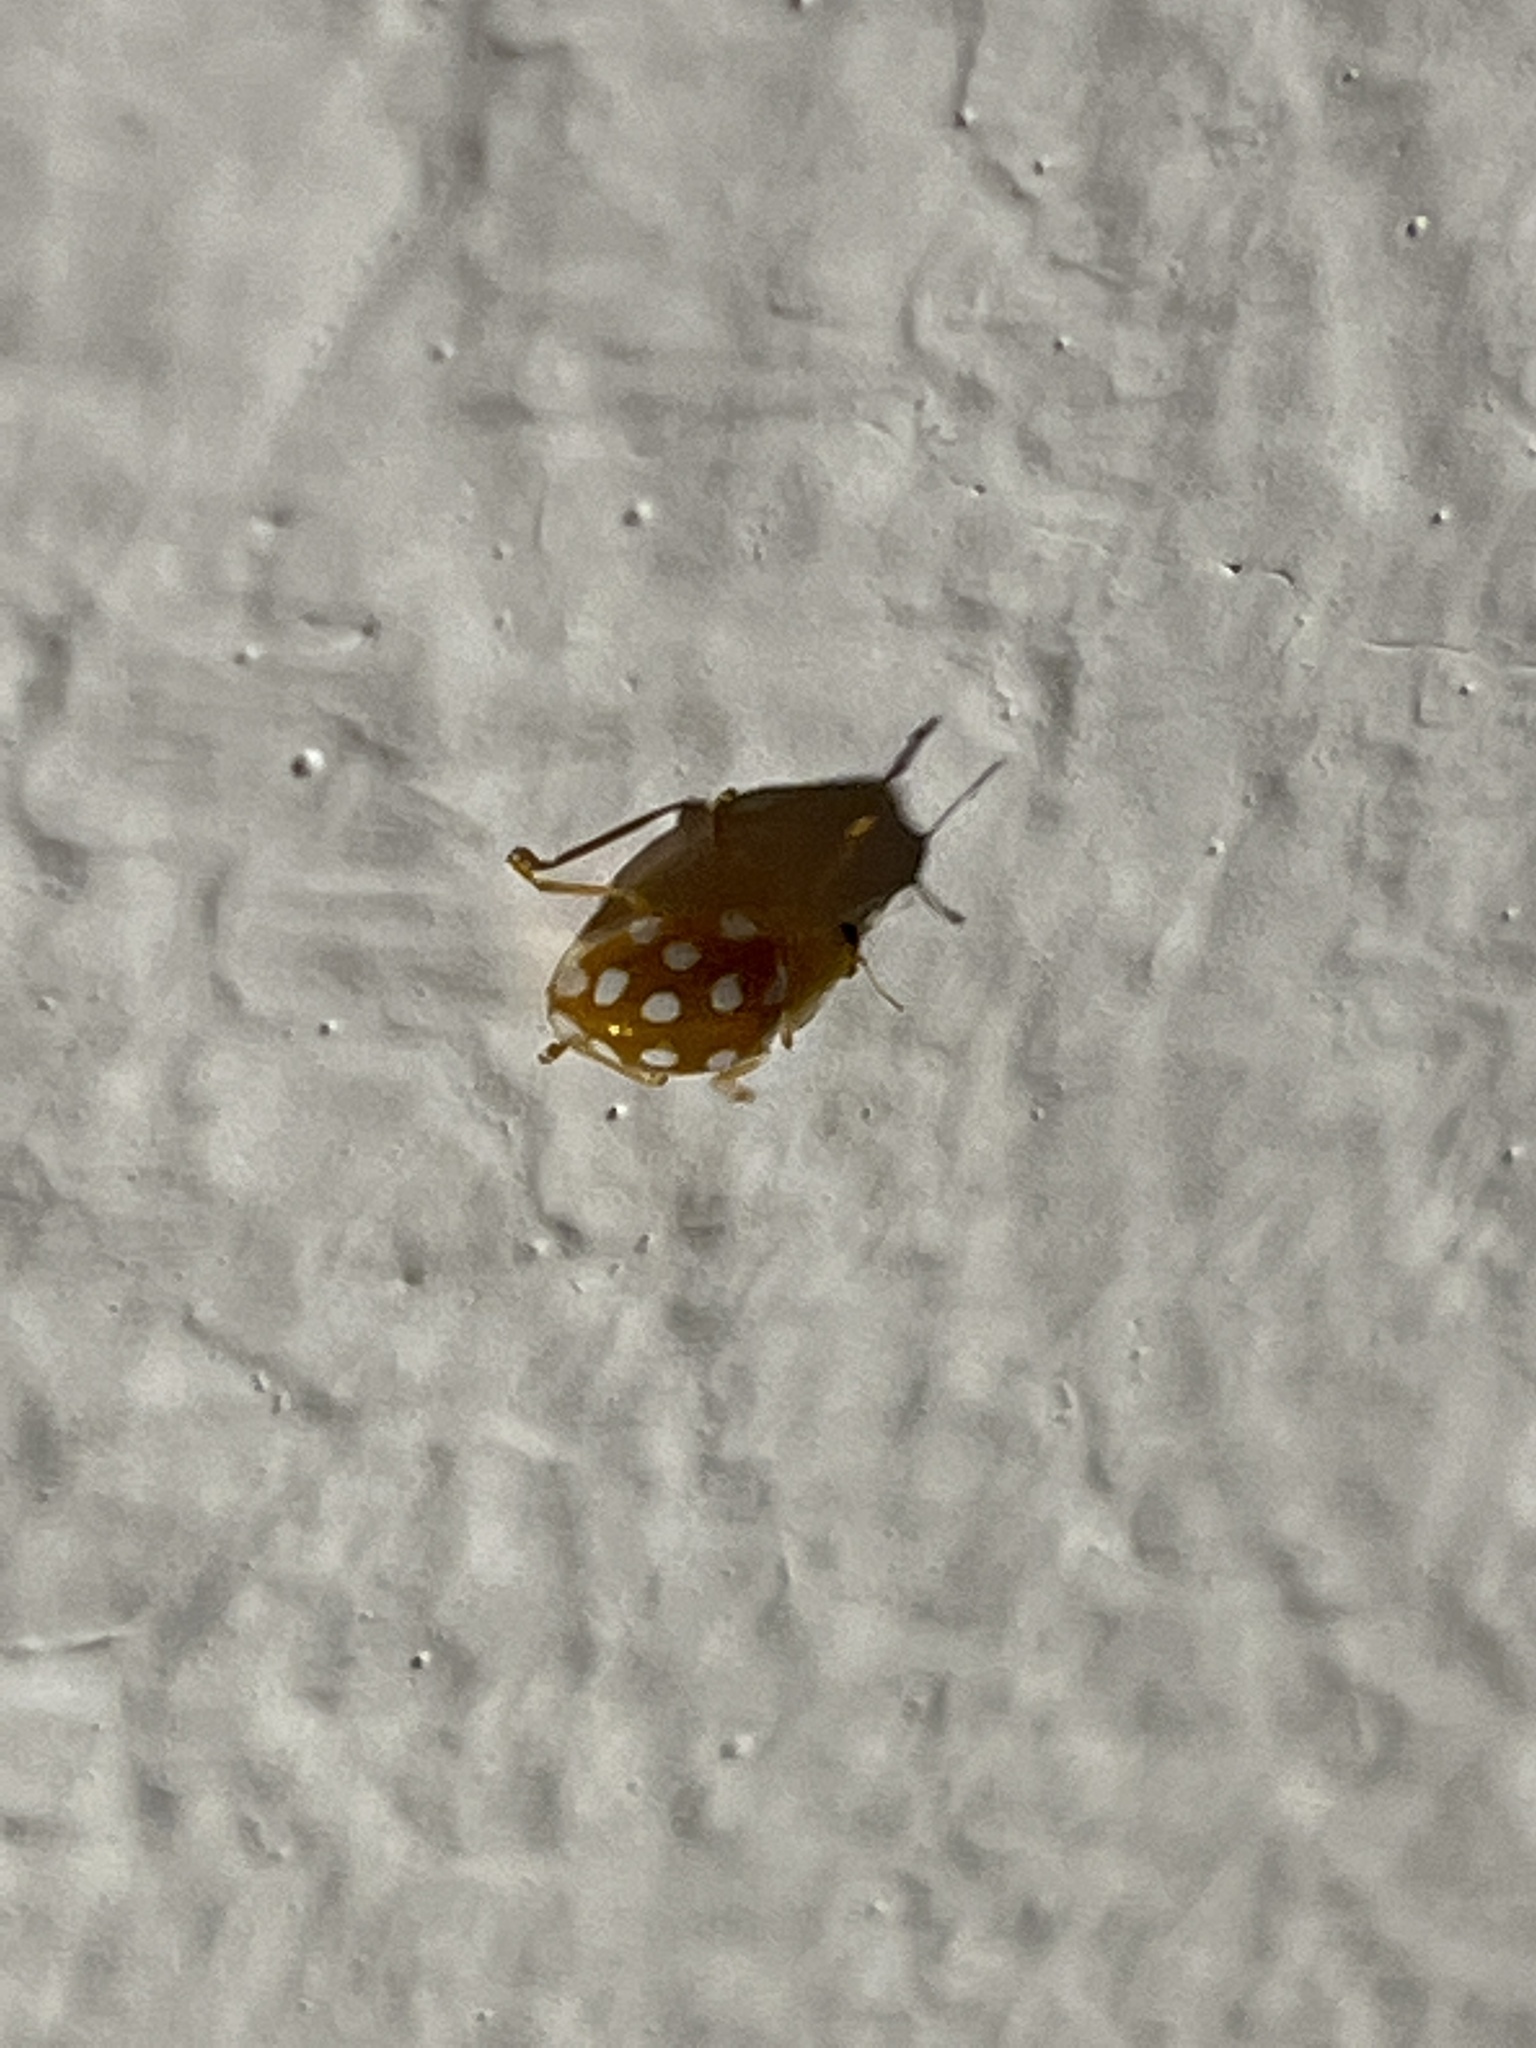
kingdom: Animalia
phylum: Arthropoda
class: Insecta
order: Coleoptera
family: Coccinellidae
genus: Halyzia
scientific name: Halyzia sedecimguttata
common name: Orange ladybird
